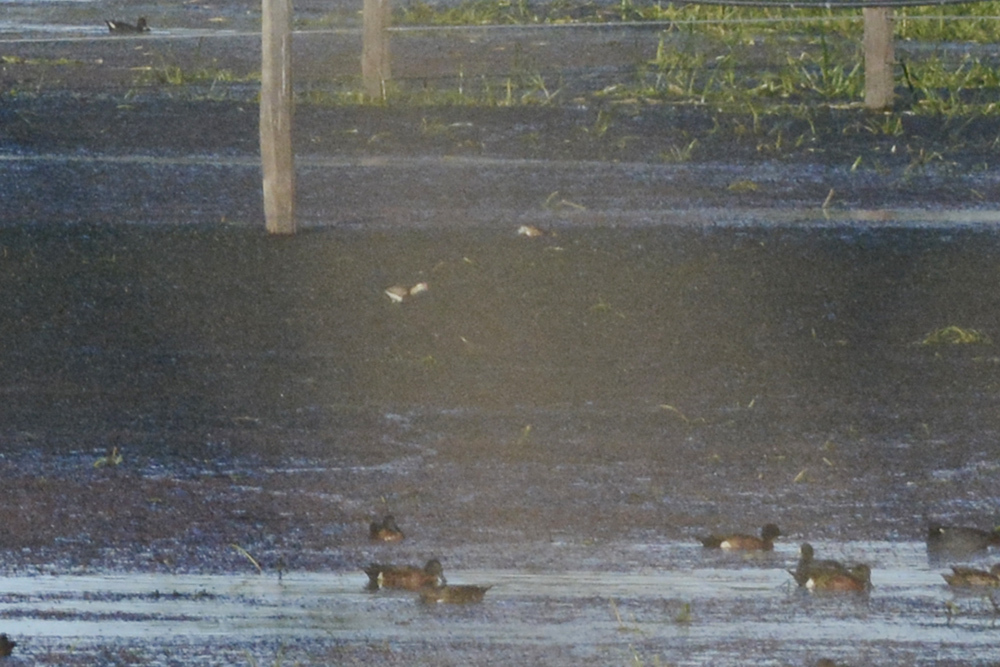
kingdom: Animalia
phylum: Chordata
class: Aves
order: Charadriiformes
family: Jacanidae
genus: Irediparra
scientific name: Irediparra gallinacea
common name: Comb-crested jacana
